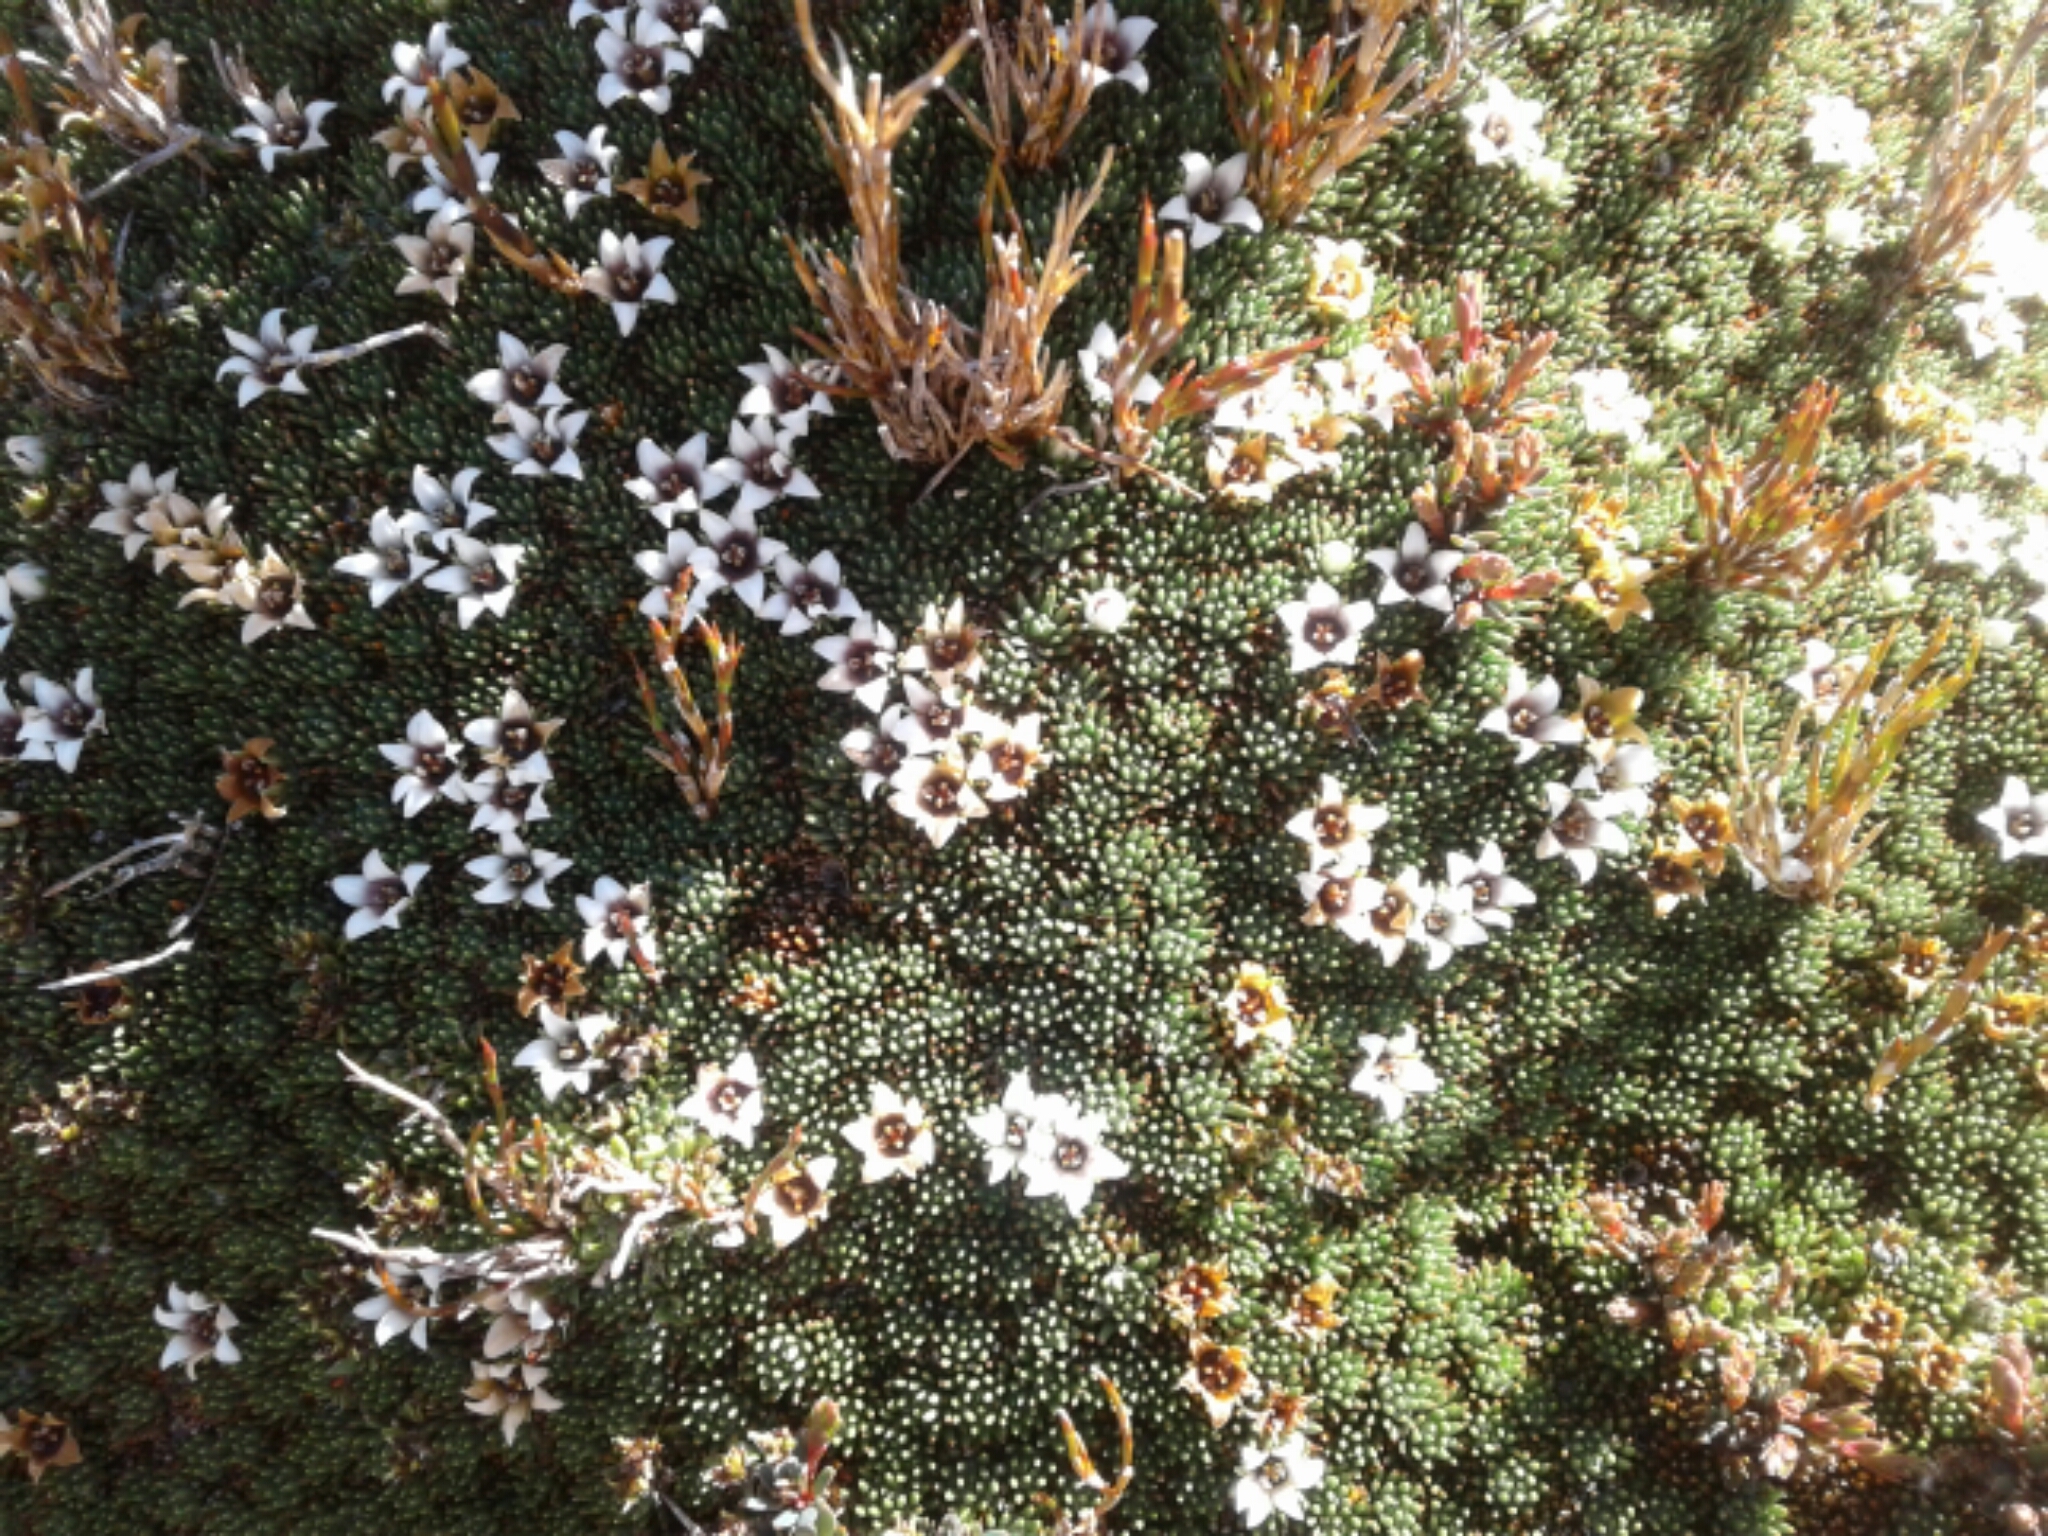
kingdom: Plantae
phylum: Tracheophyta
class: Magnoliopsida
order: Asterales
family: Stylidiaceae
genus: Donatia
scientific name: Donatia novae-zelandiae
